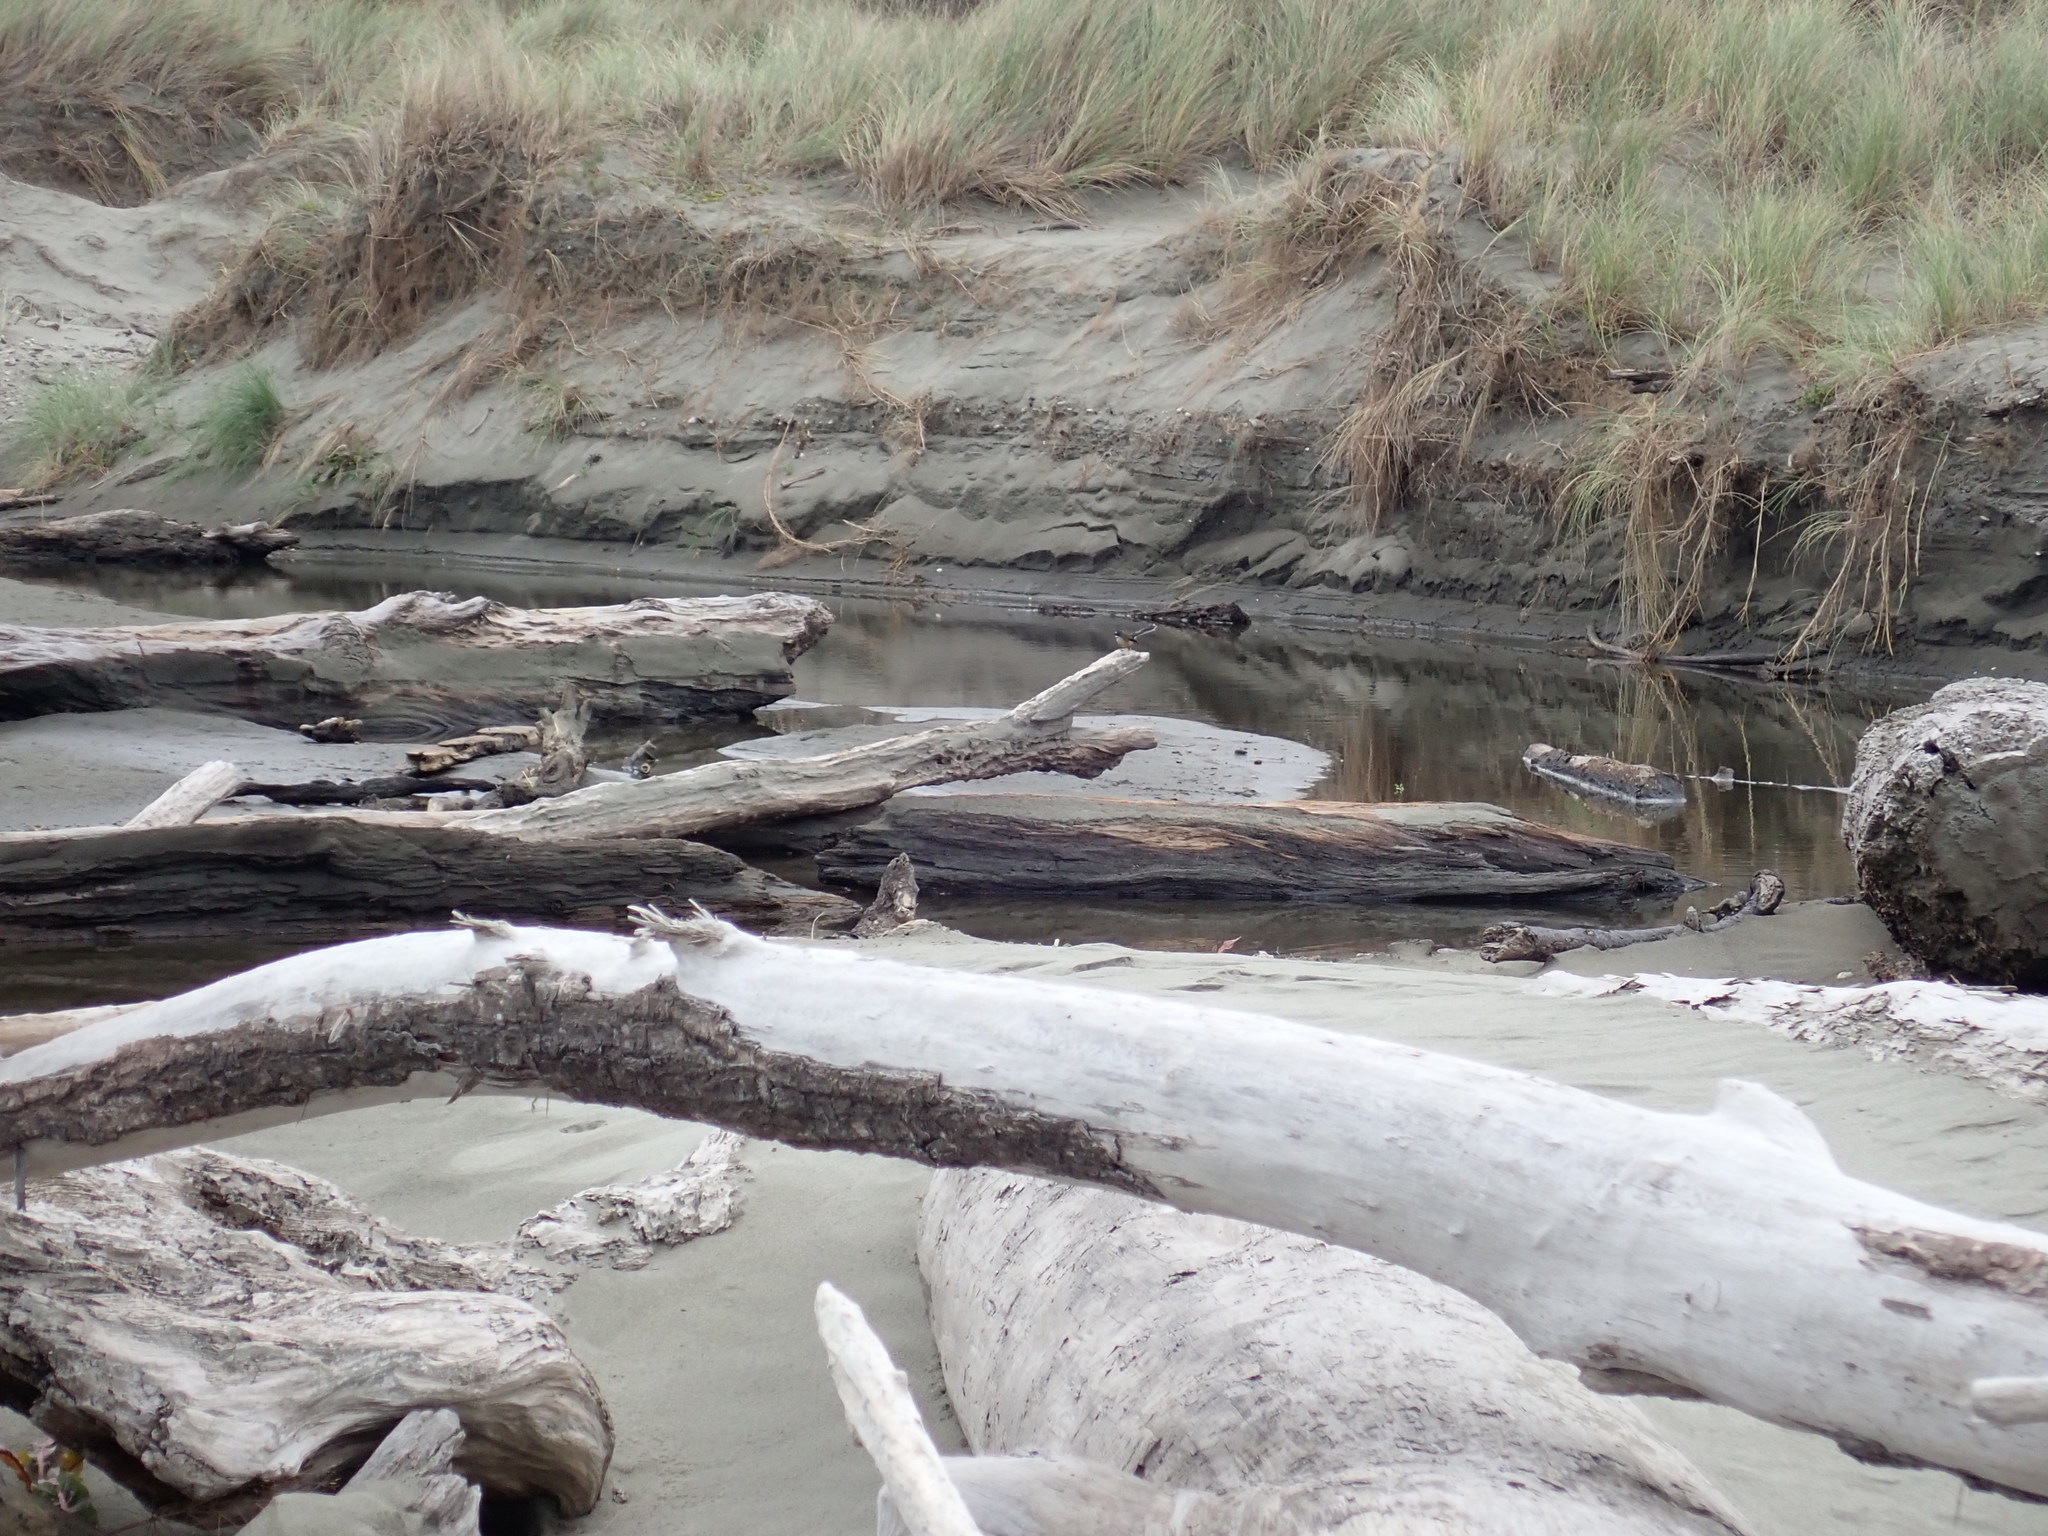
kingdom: Animalia
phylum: Chordata
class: Aves
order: Passeriformes
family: Rhipiduridae
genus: Rhipidura
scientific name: Rhipidura fuliginosa
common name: New zealand fantail
